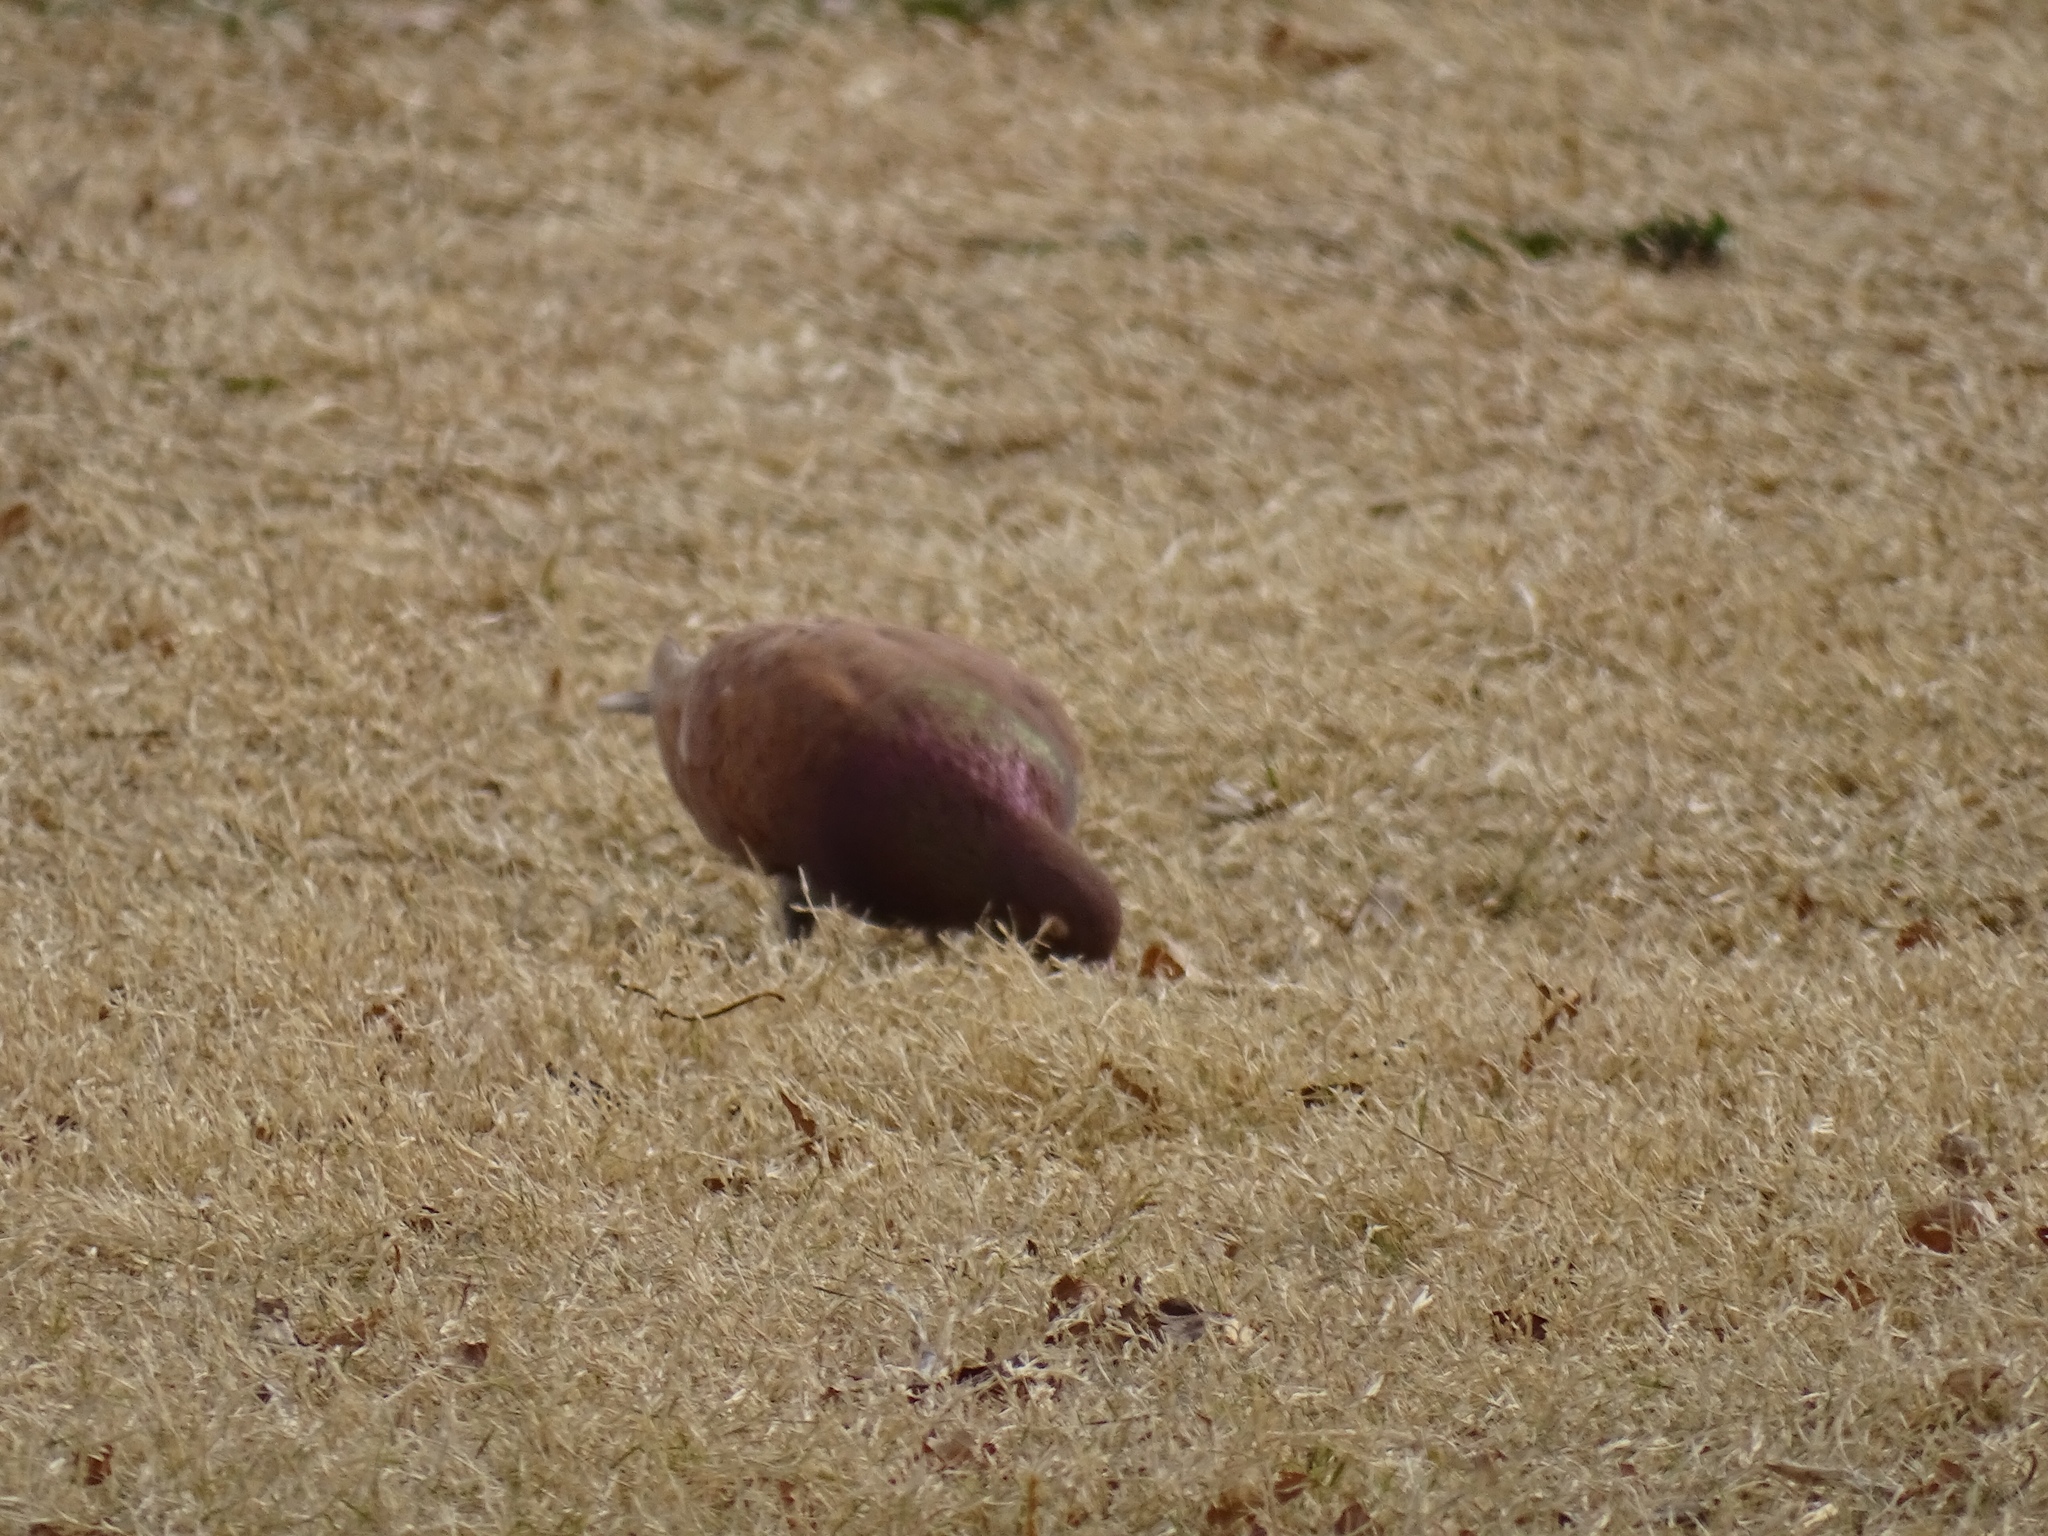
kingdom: Animalia
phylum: Chordata
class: Aves
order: Columbiformes
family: Columbidae
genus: Columba
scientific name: Columba livia
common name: Rock pigeon
